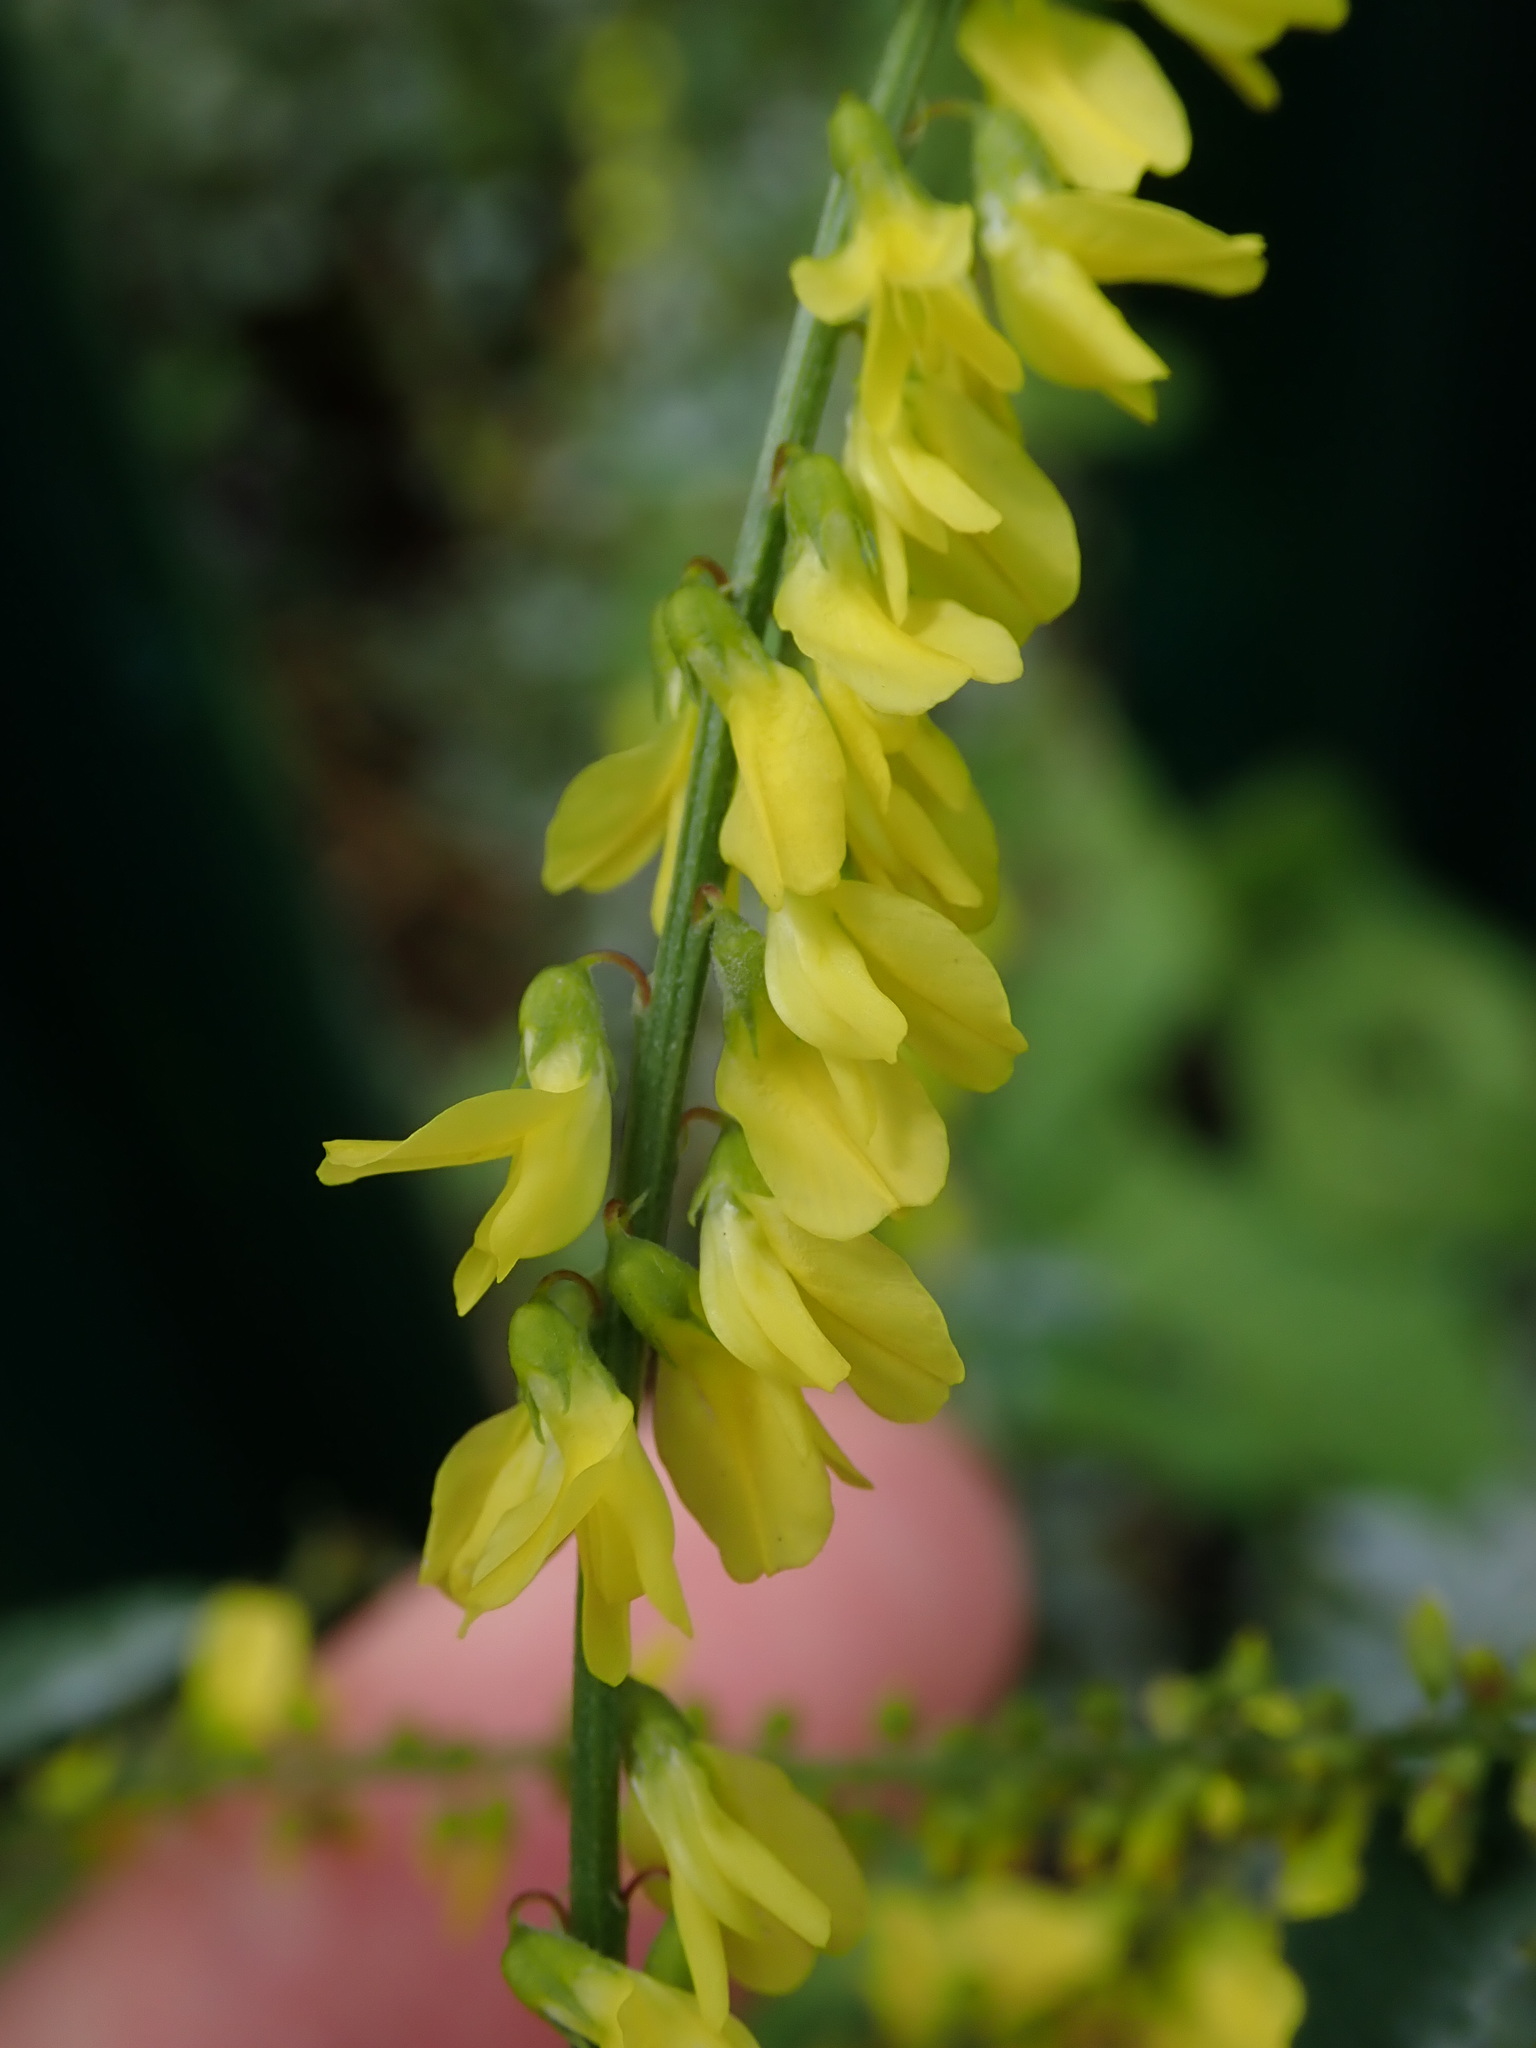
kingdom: Plantae
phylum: Tracheophyta
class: Magnoliopsida
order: Fabales
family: Fabaceae
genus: Melilotus
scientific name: Melilotus officinalis
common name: Sweetclover
